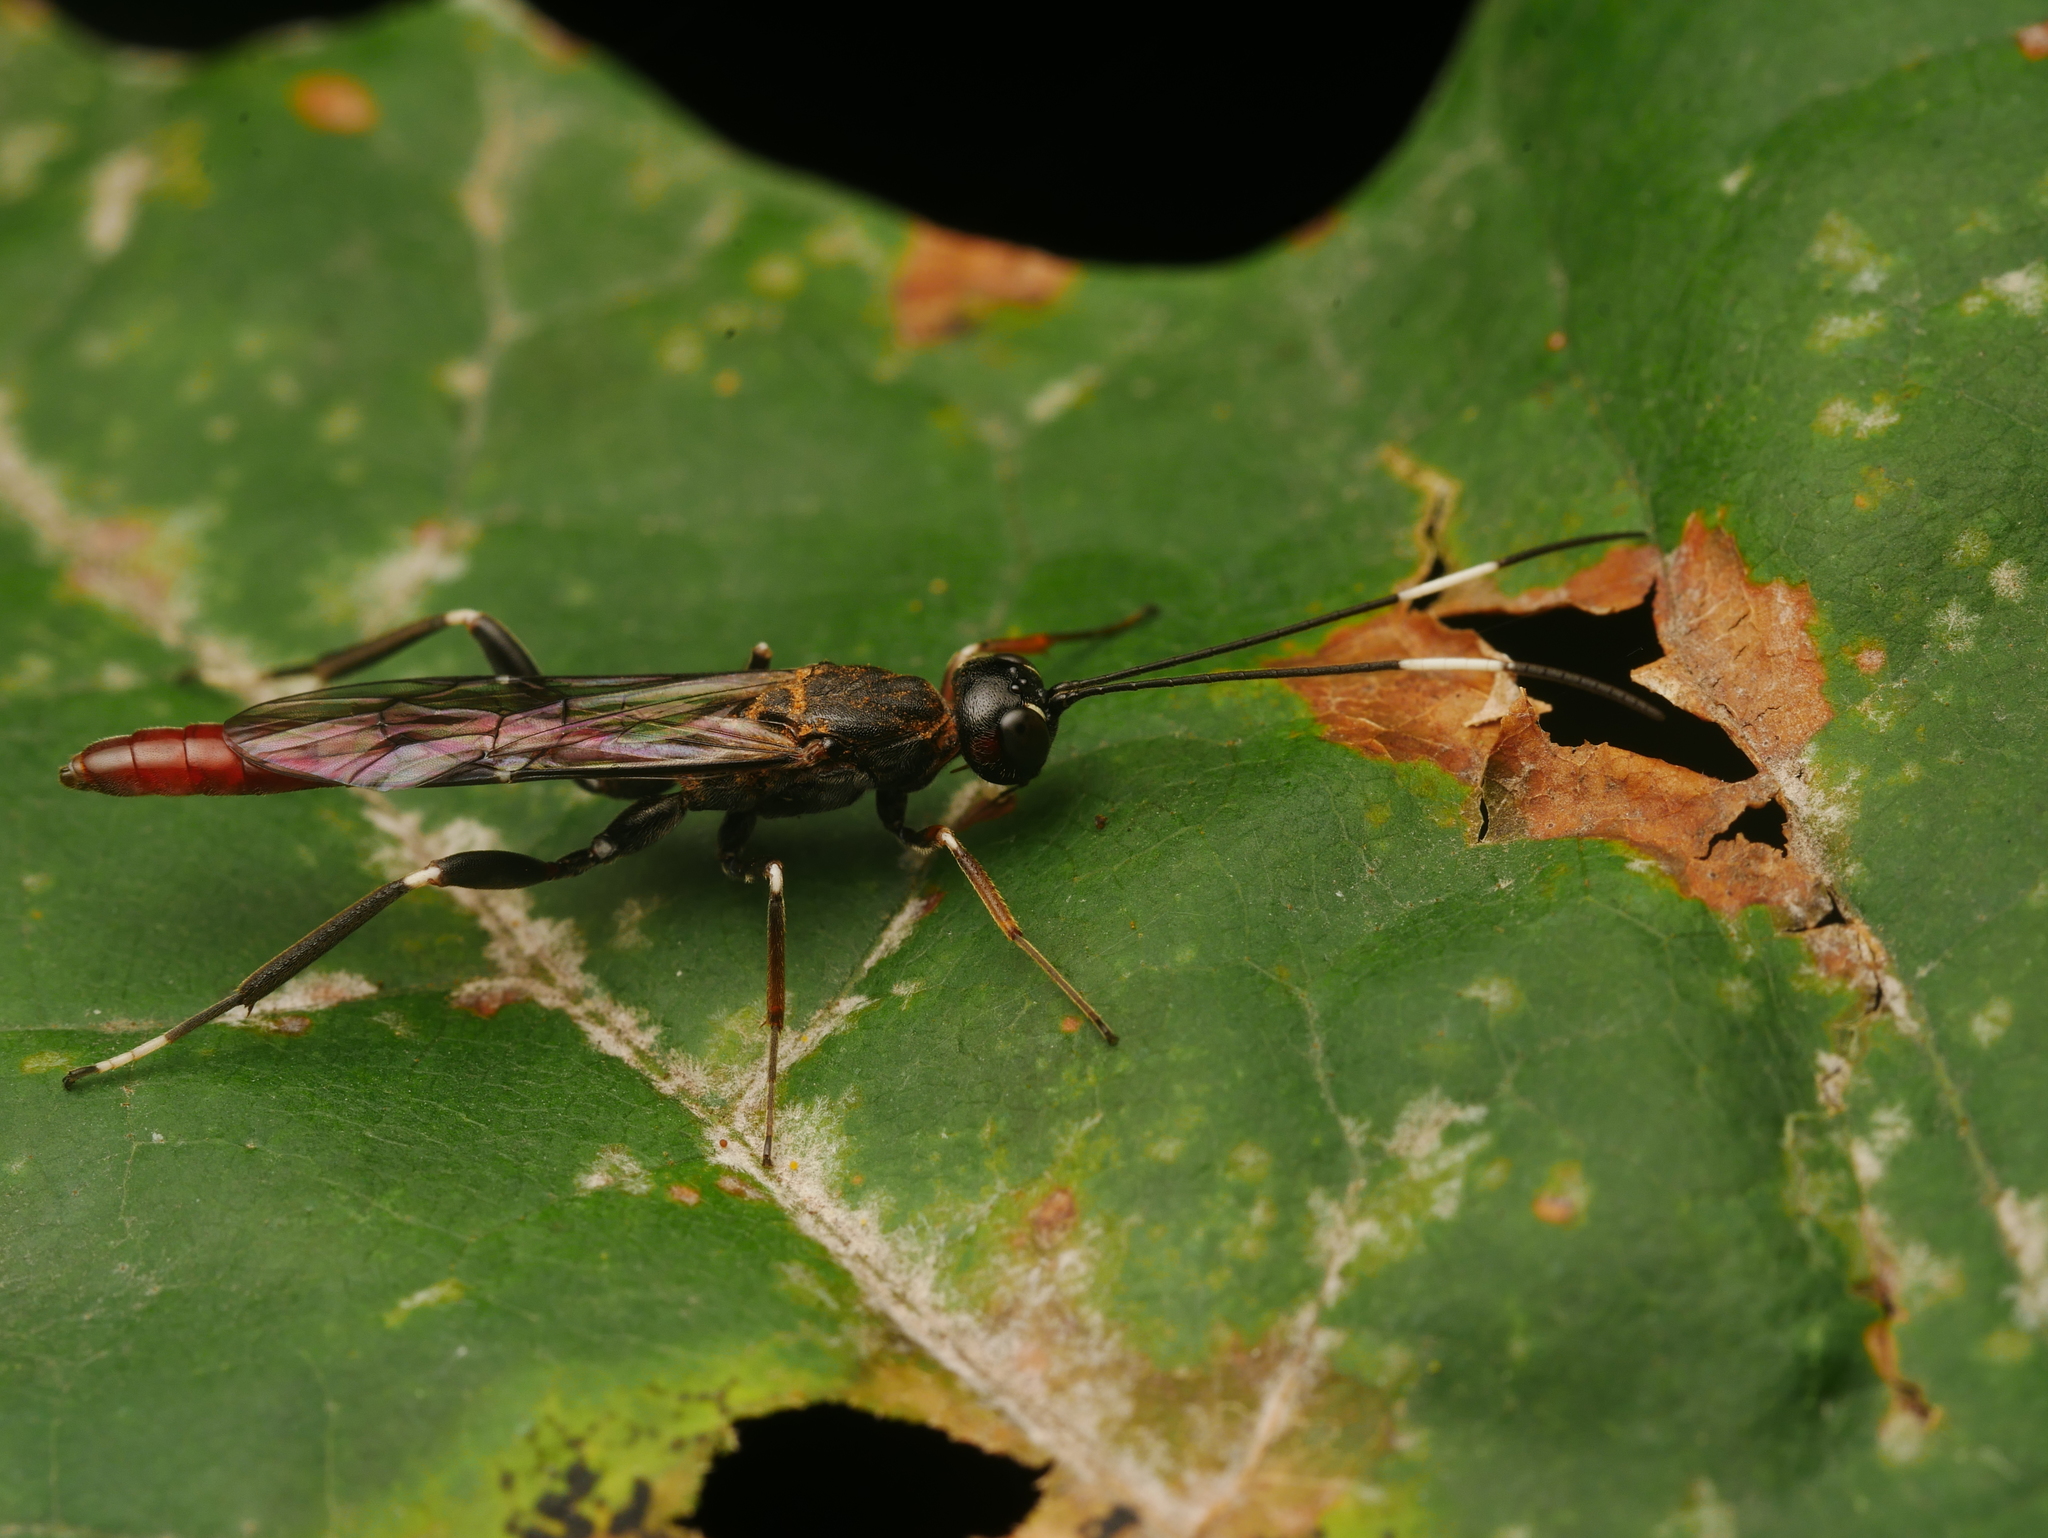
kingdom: Animalia
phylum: Arthropoda
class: Insecta
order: Hymenoptera
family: Ichneumonidae
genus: Xorides
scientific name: Xorides filiformis
